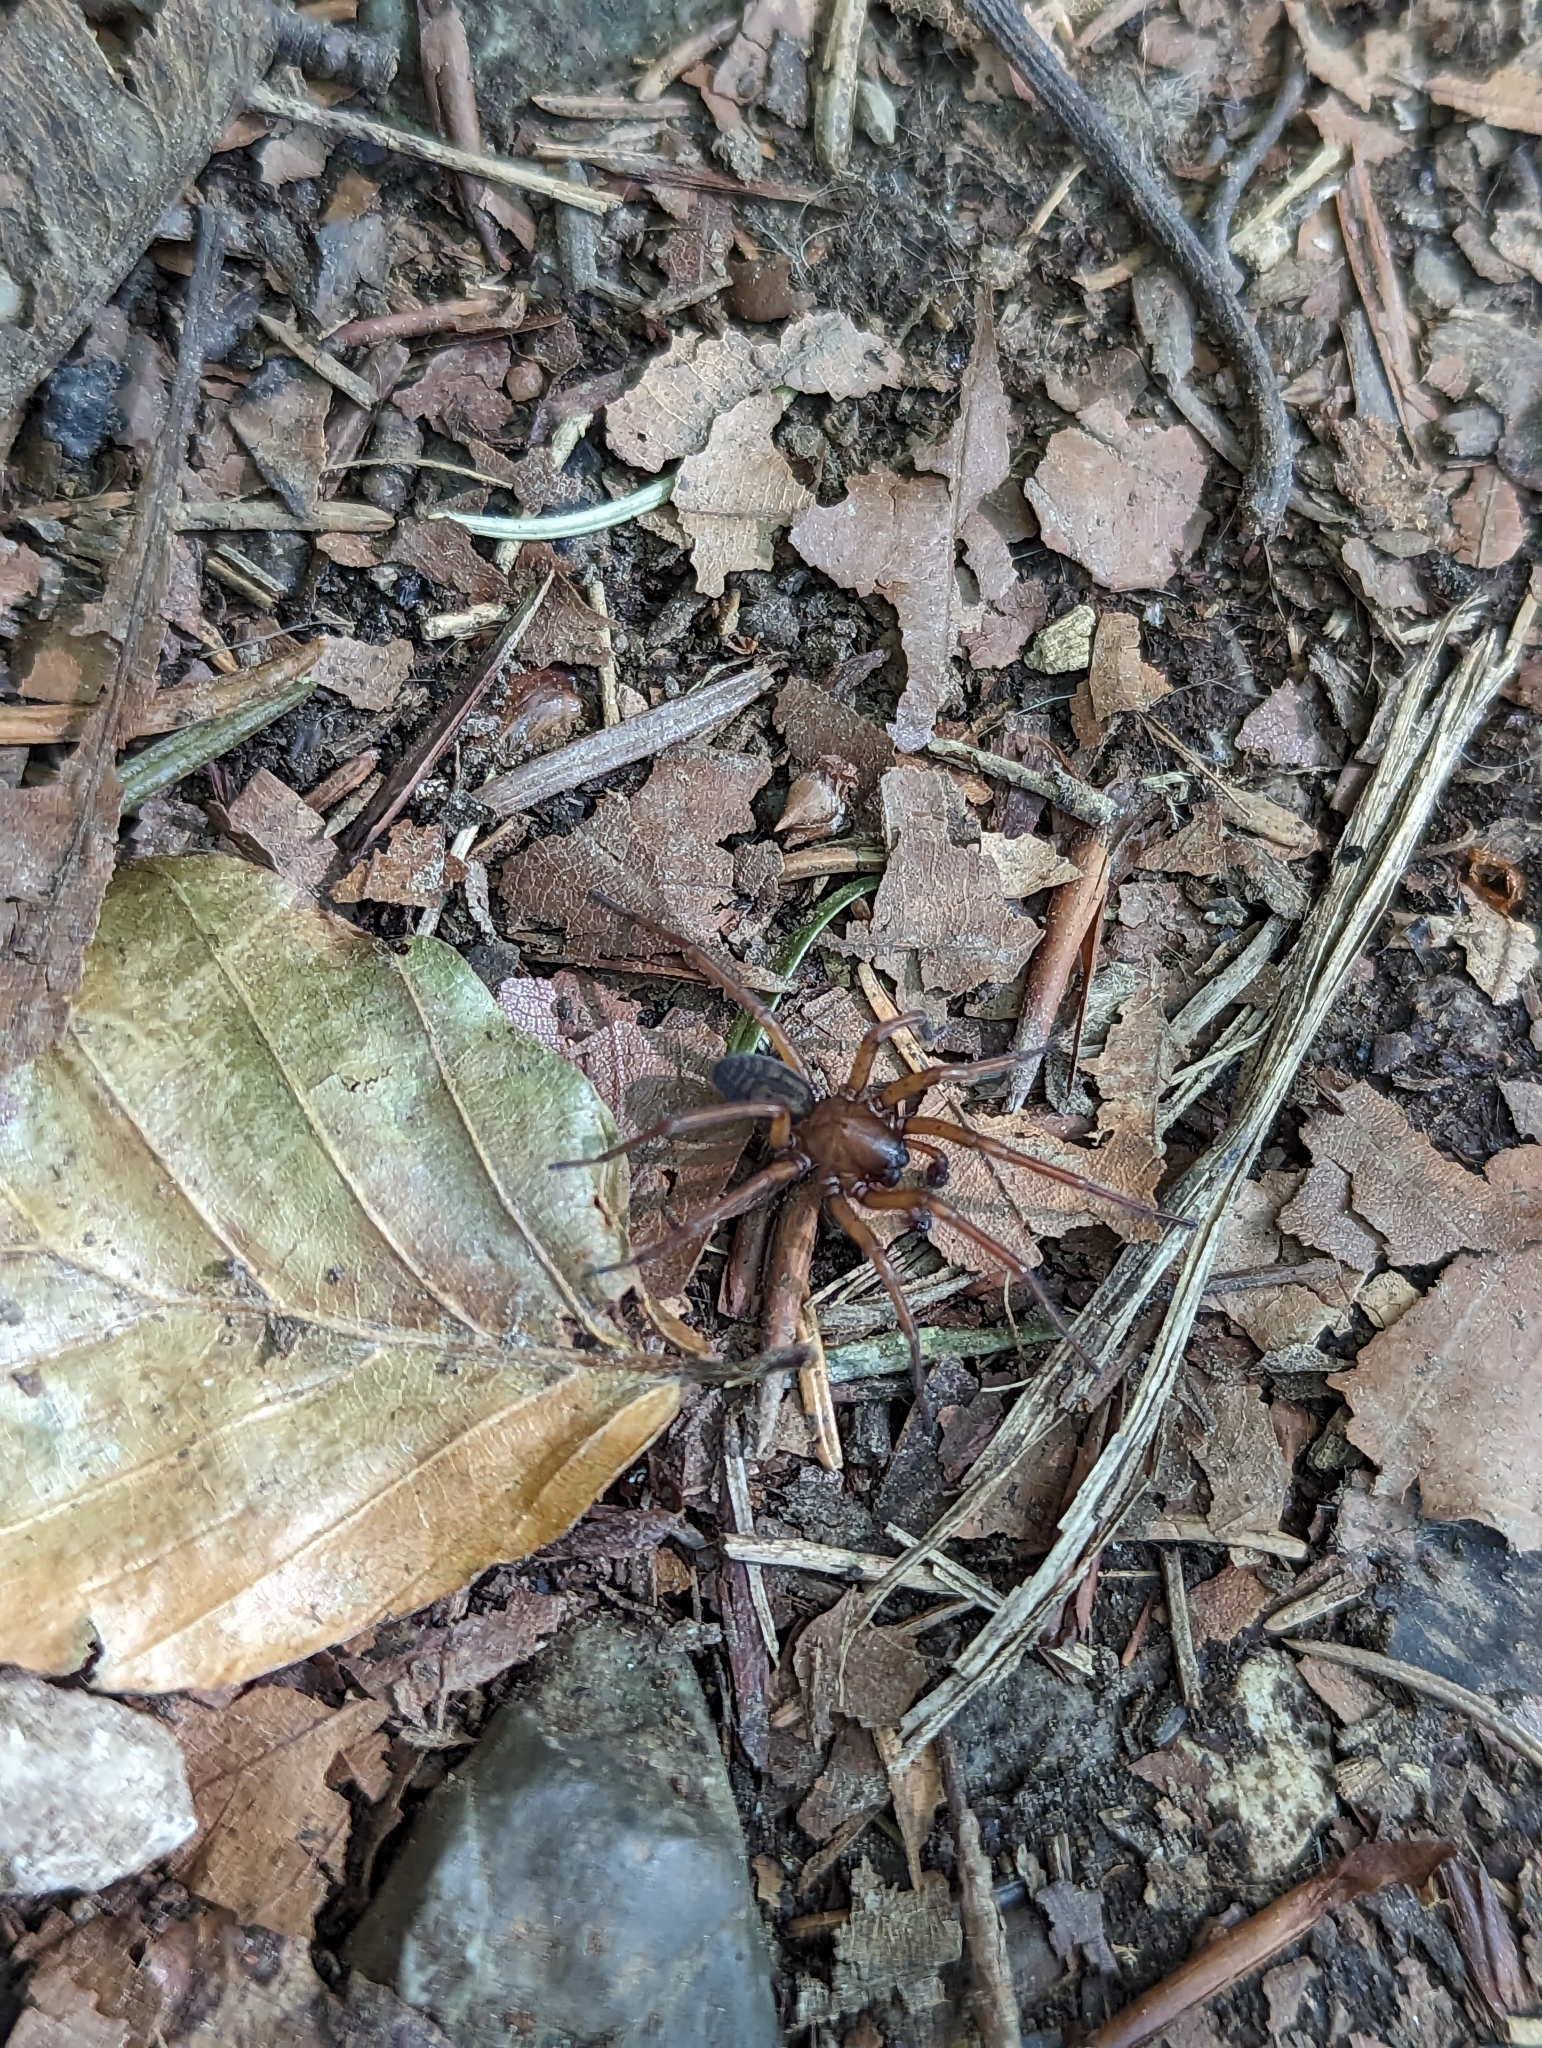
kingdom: Animalia
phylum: Arthropoda
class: Arachnida
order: Araneae
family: Amaurobiidae
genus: Callobius
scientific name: Callobius claustrarius
